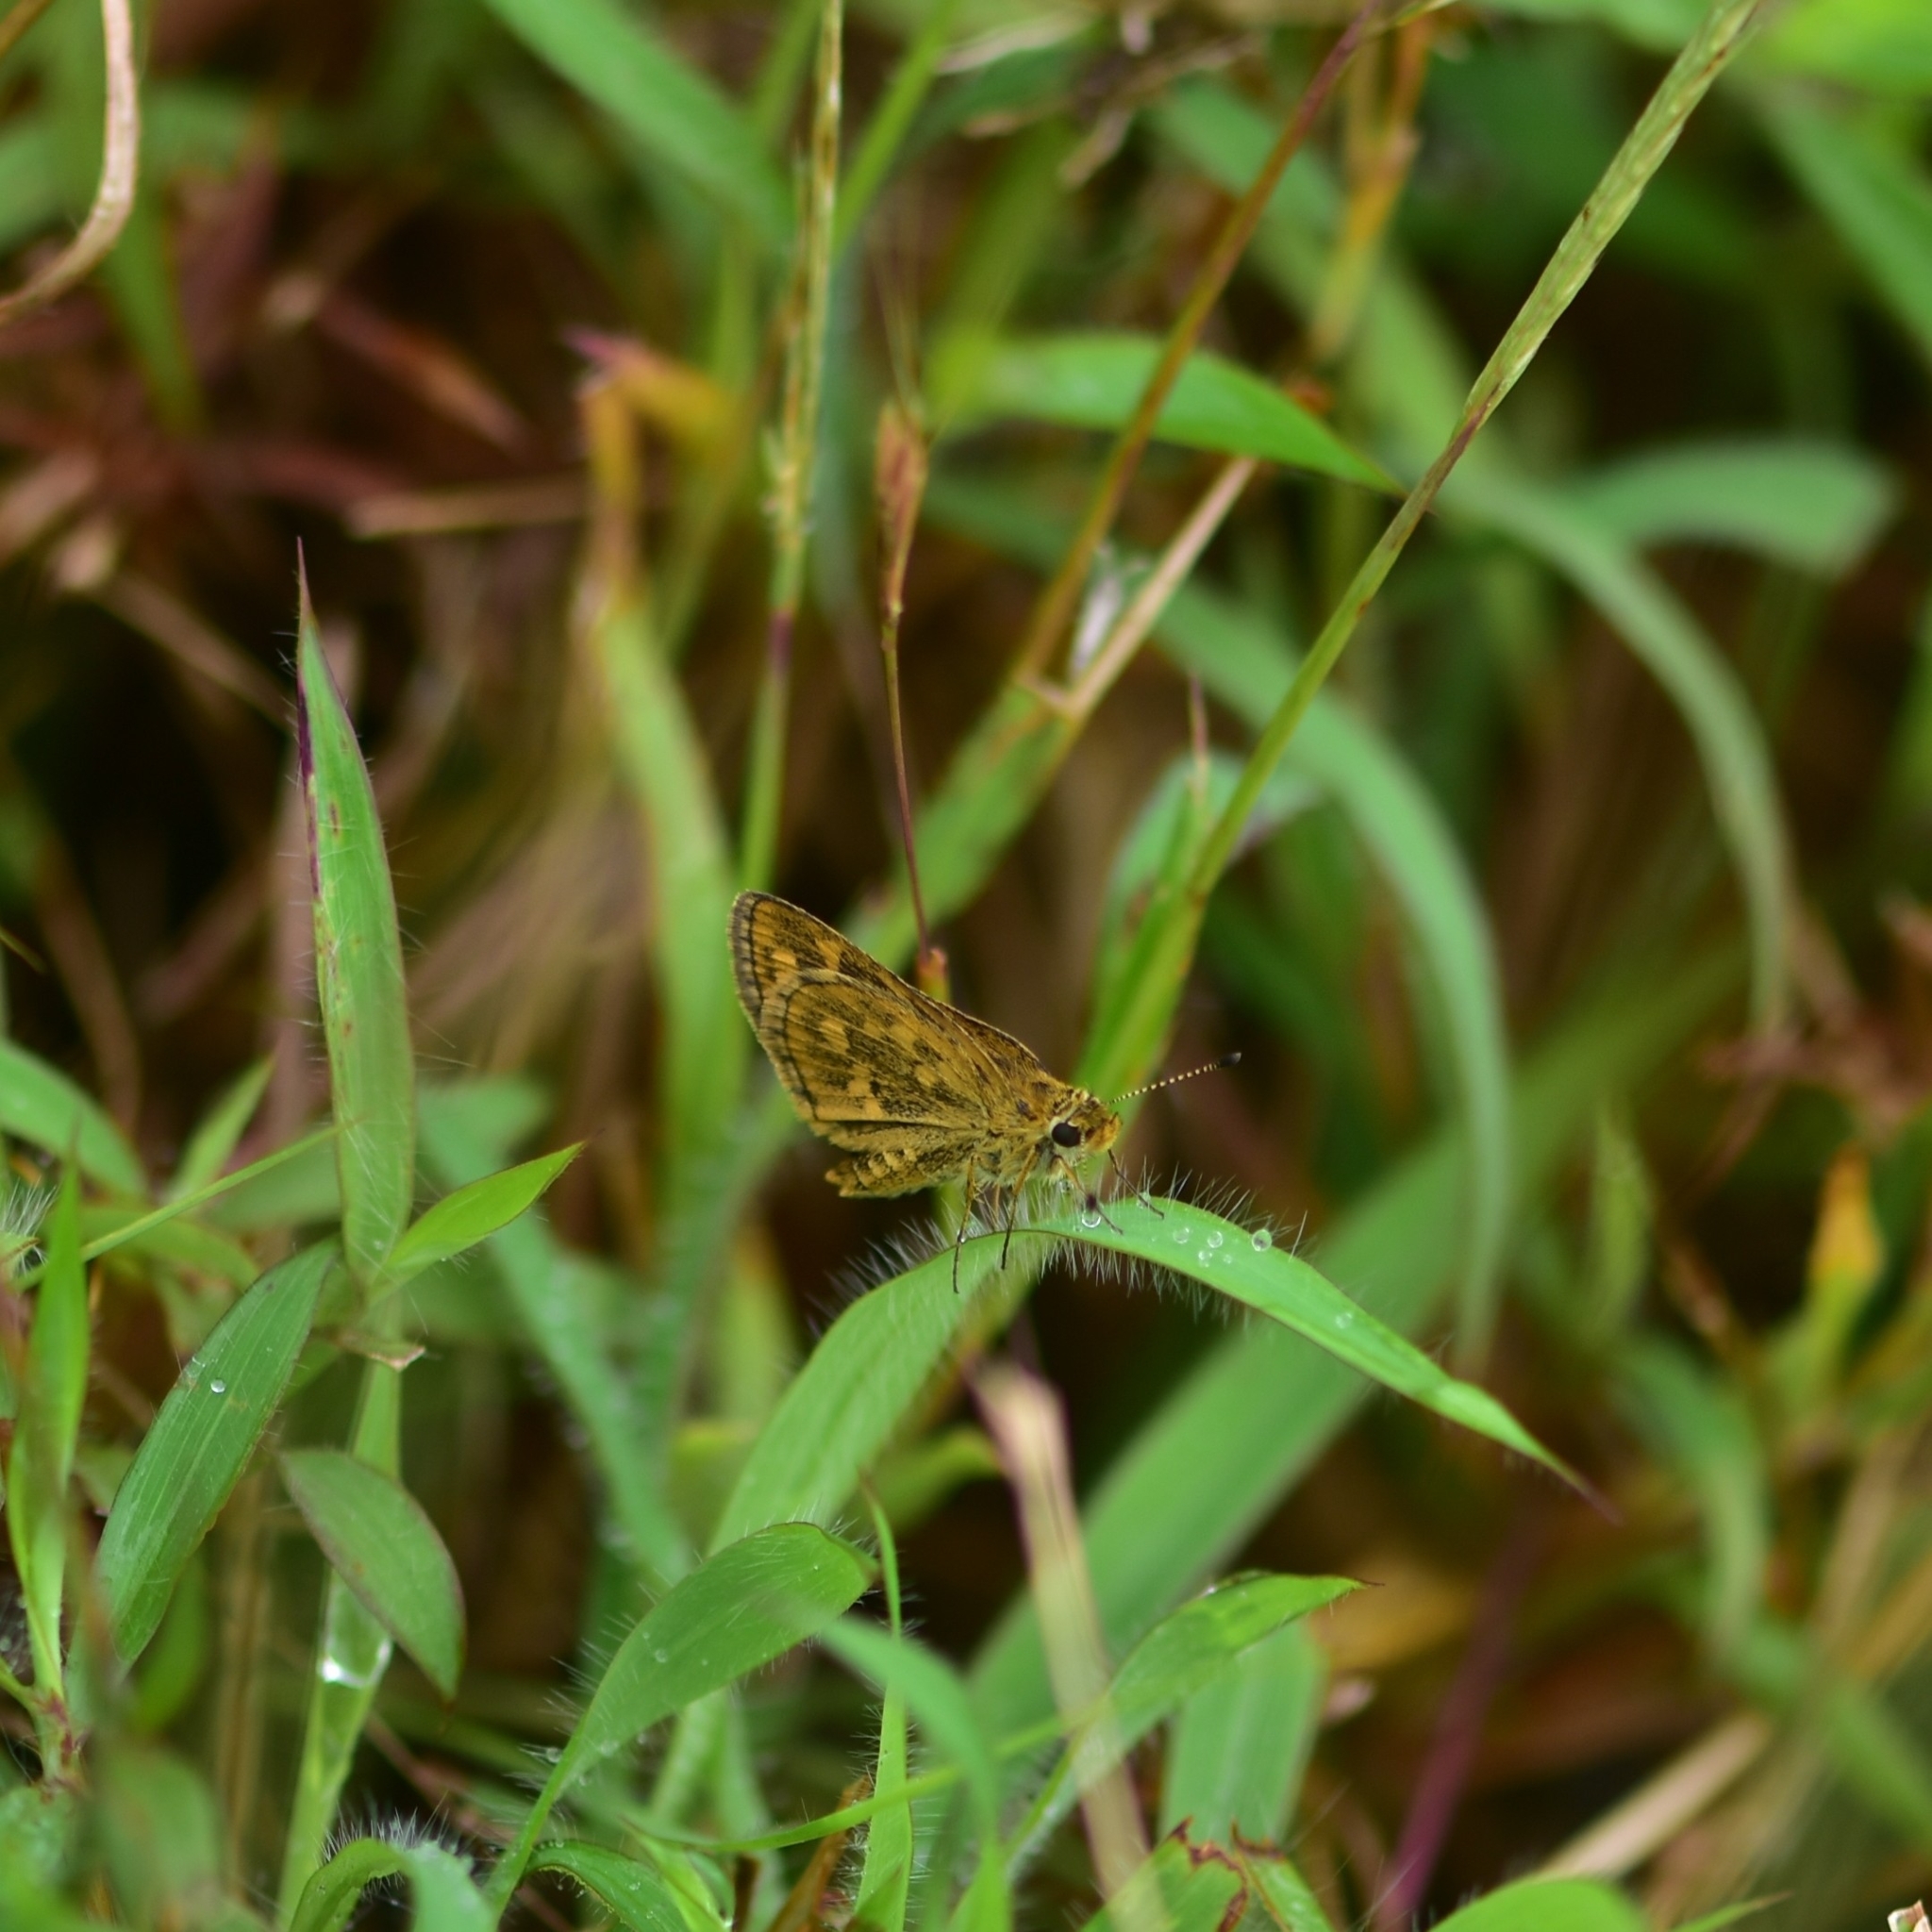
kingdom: Animalia
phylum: Arthropoda
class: Insecta
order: Lepidoptera
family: Hesperiidae
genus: Ampittia
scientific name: Ampittia dioscorides
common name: Common bush hopper
